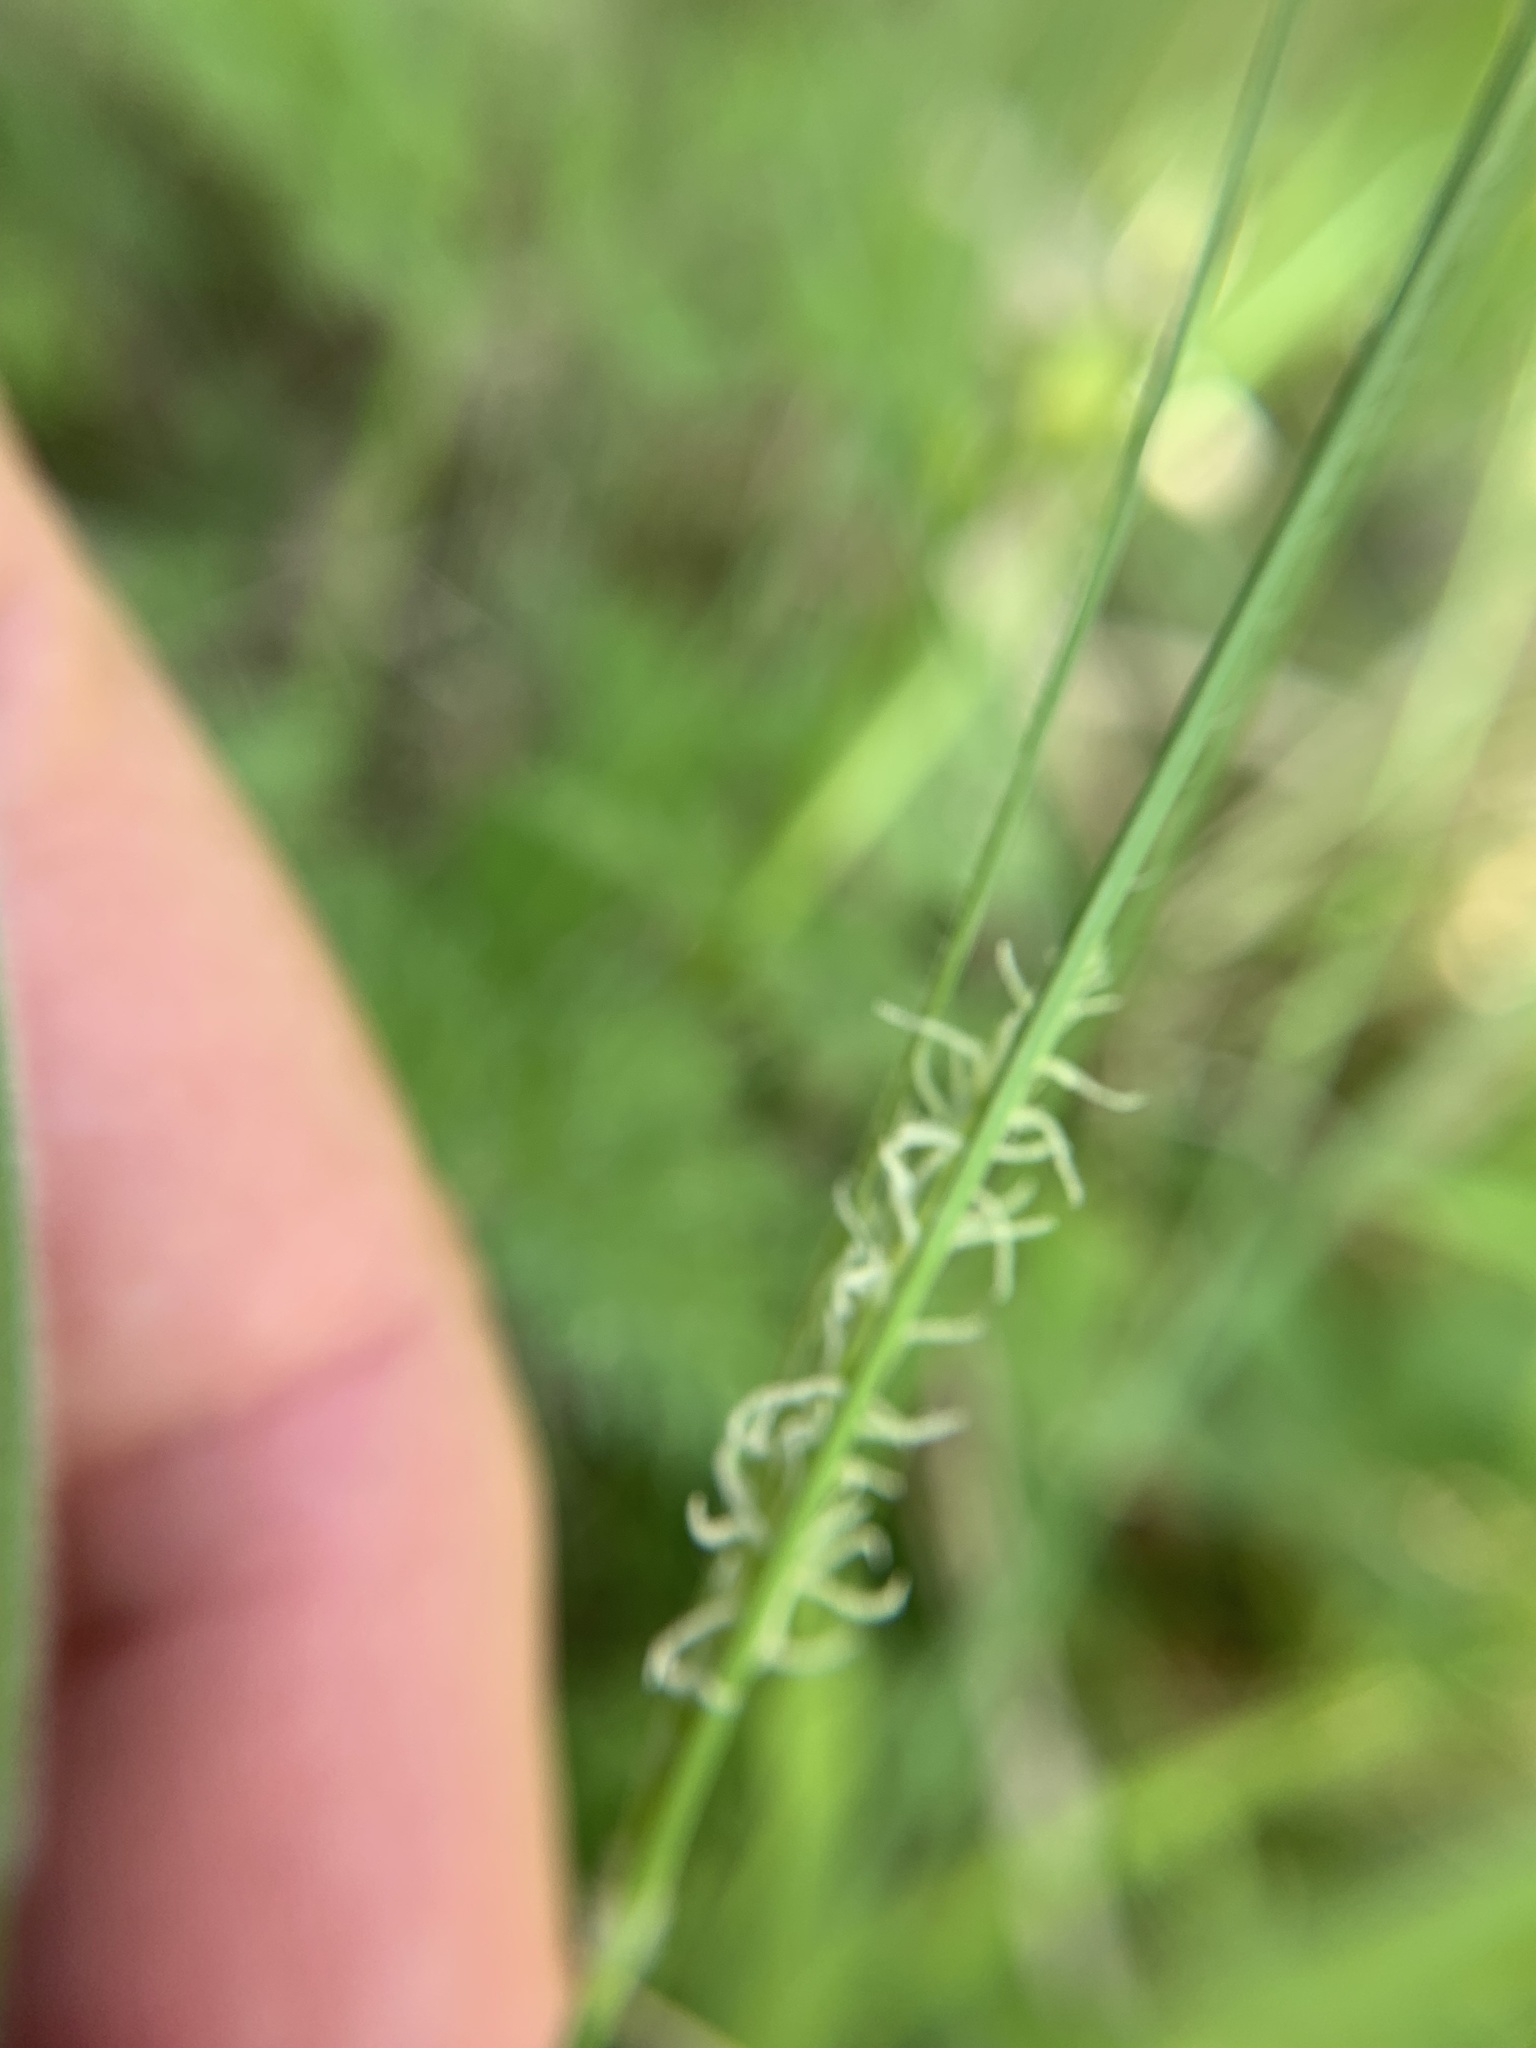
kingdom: Plantae
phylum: Tracheophyta
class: Liliopsida
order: Poales
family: Cyperaceae
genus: Carex
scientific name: Carex hirta
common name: Hairy sedge
